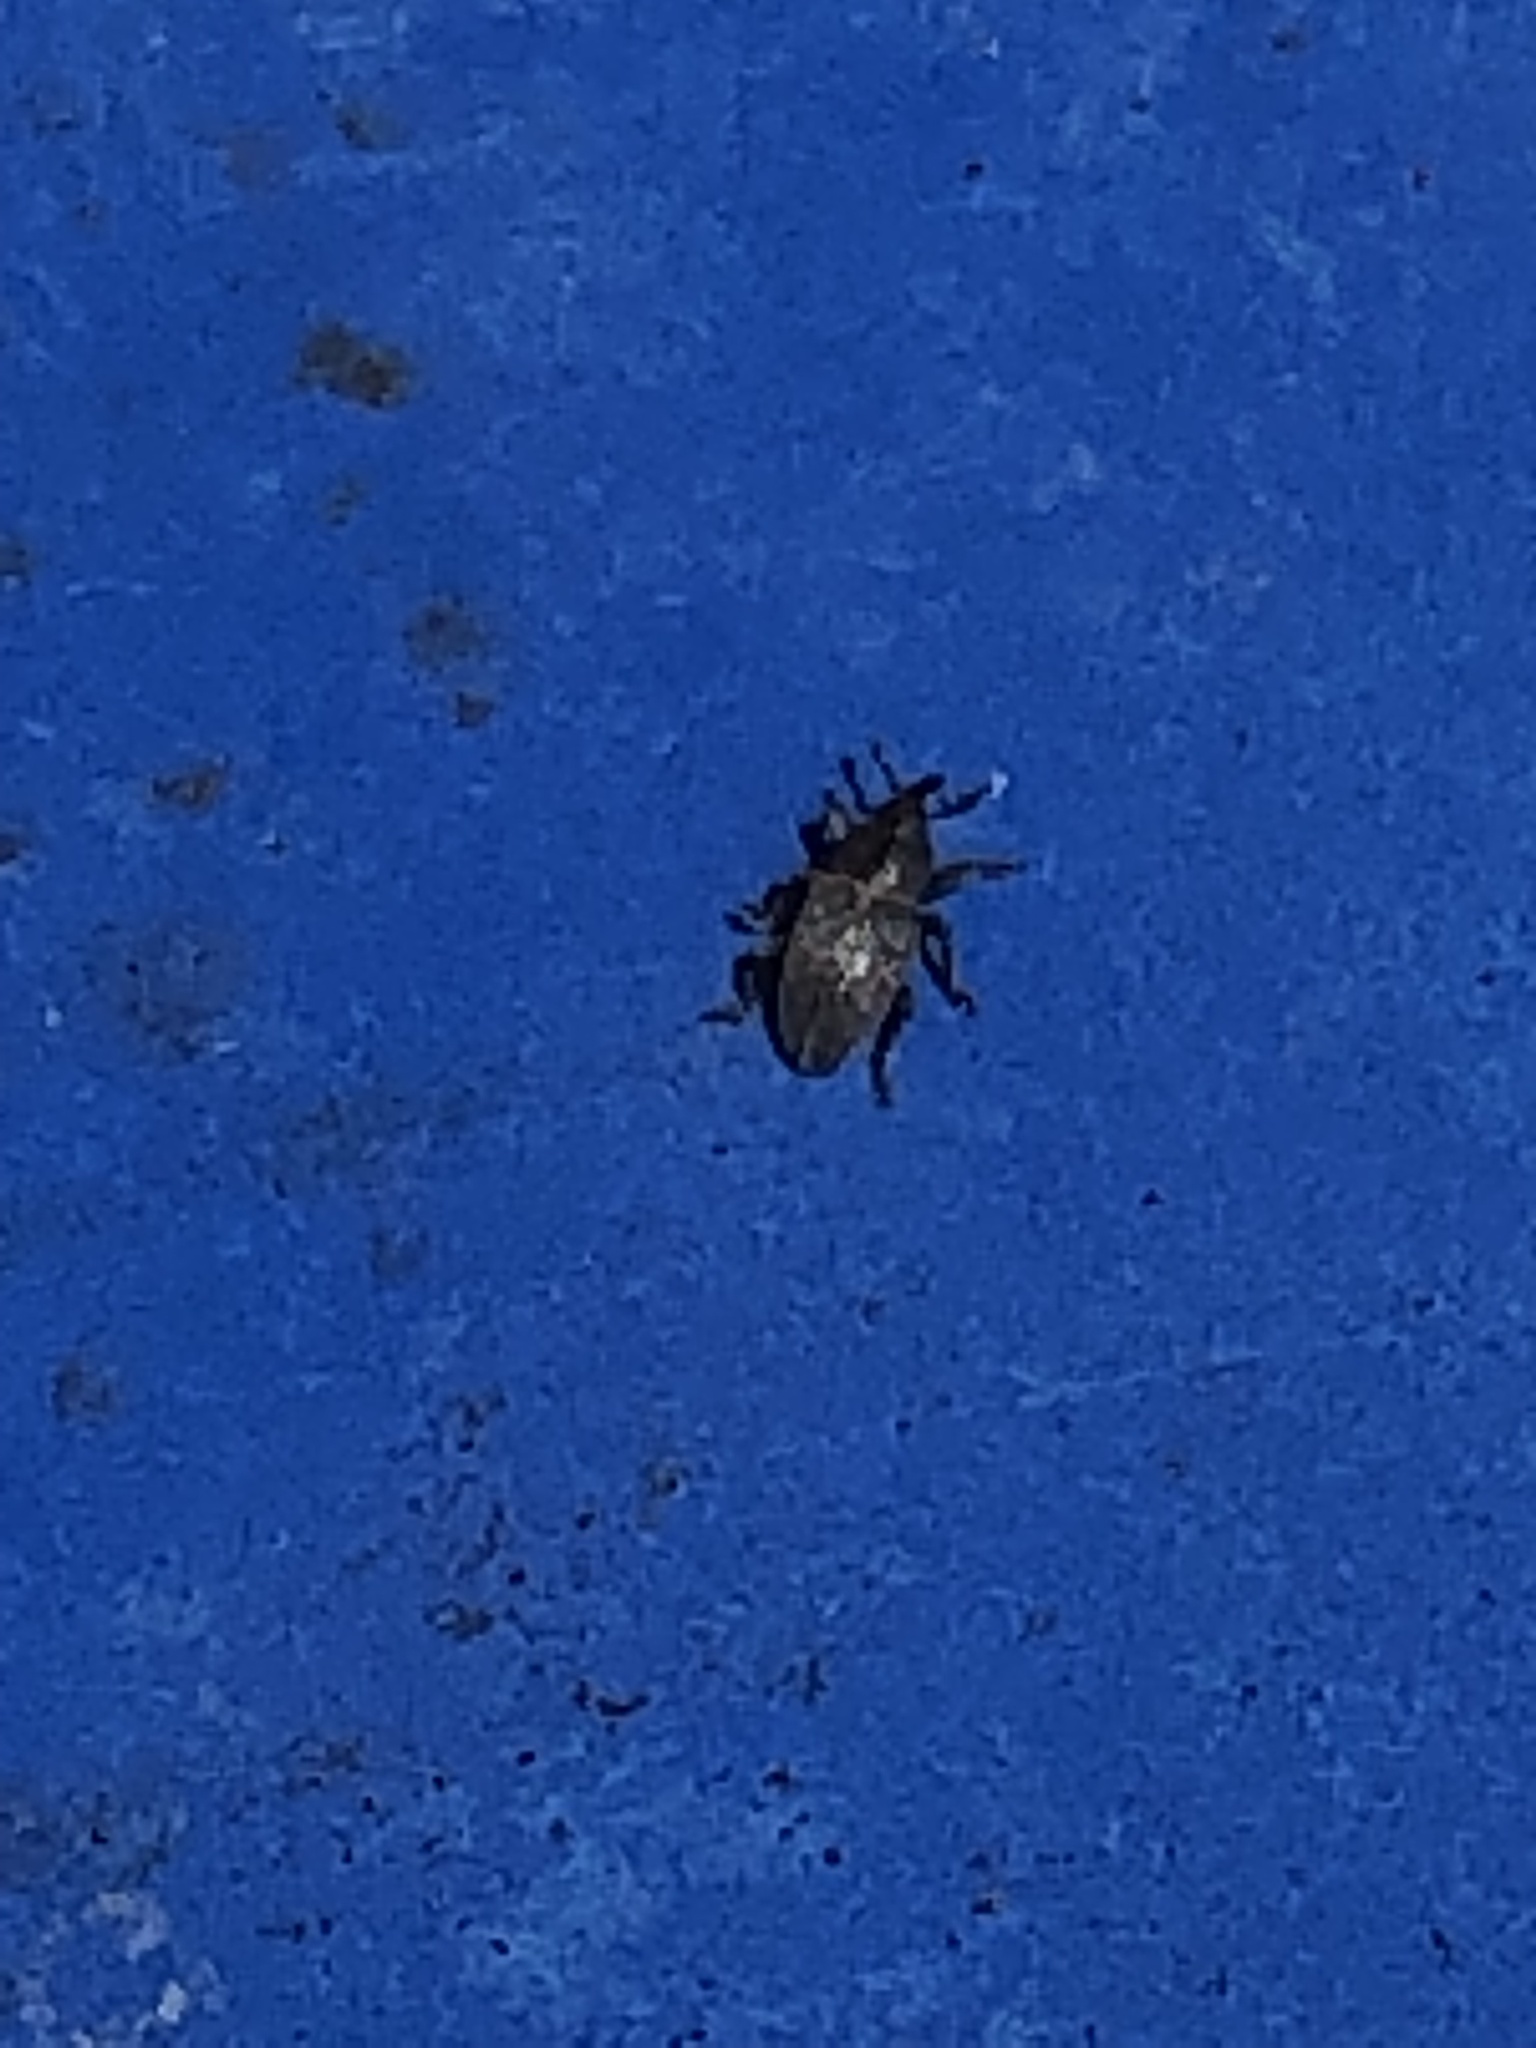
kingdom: Animalia
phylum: Arthropoda
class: Insecta
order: Coleoptera
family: Curculionidae
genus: Tychius
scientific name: Tychius picirostris
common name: Clover seed weevil
